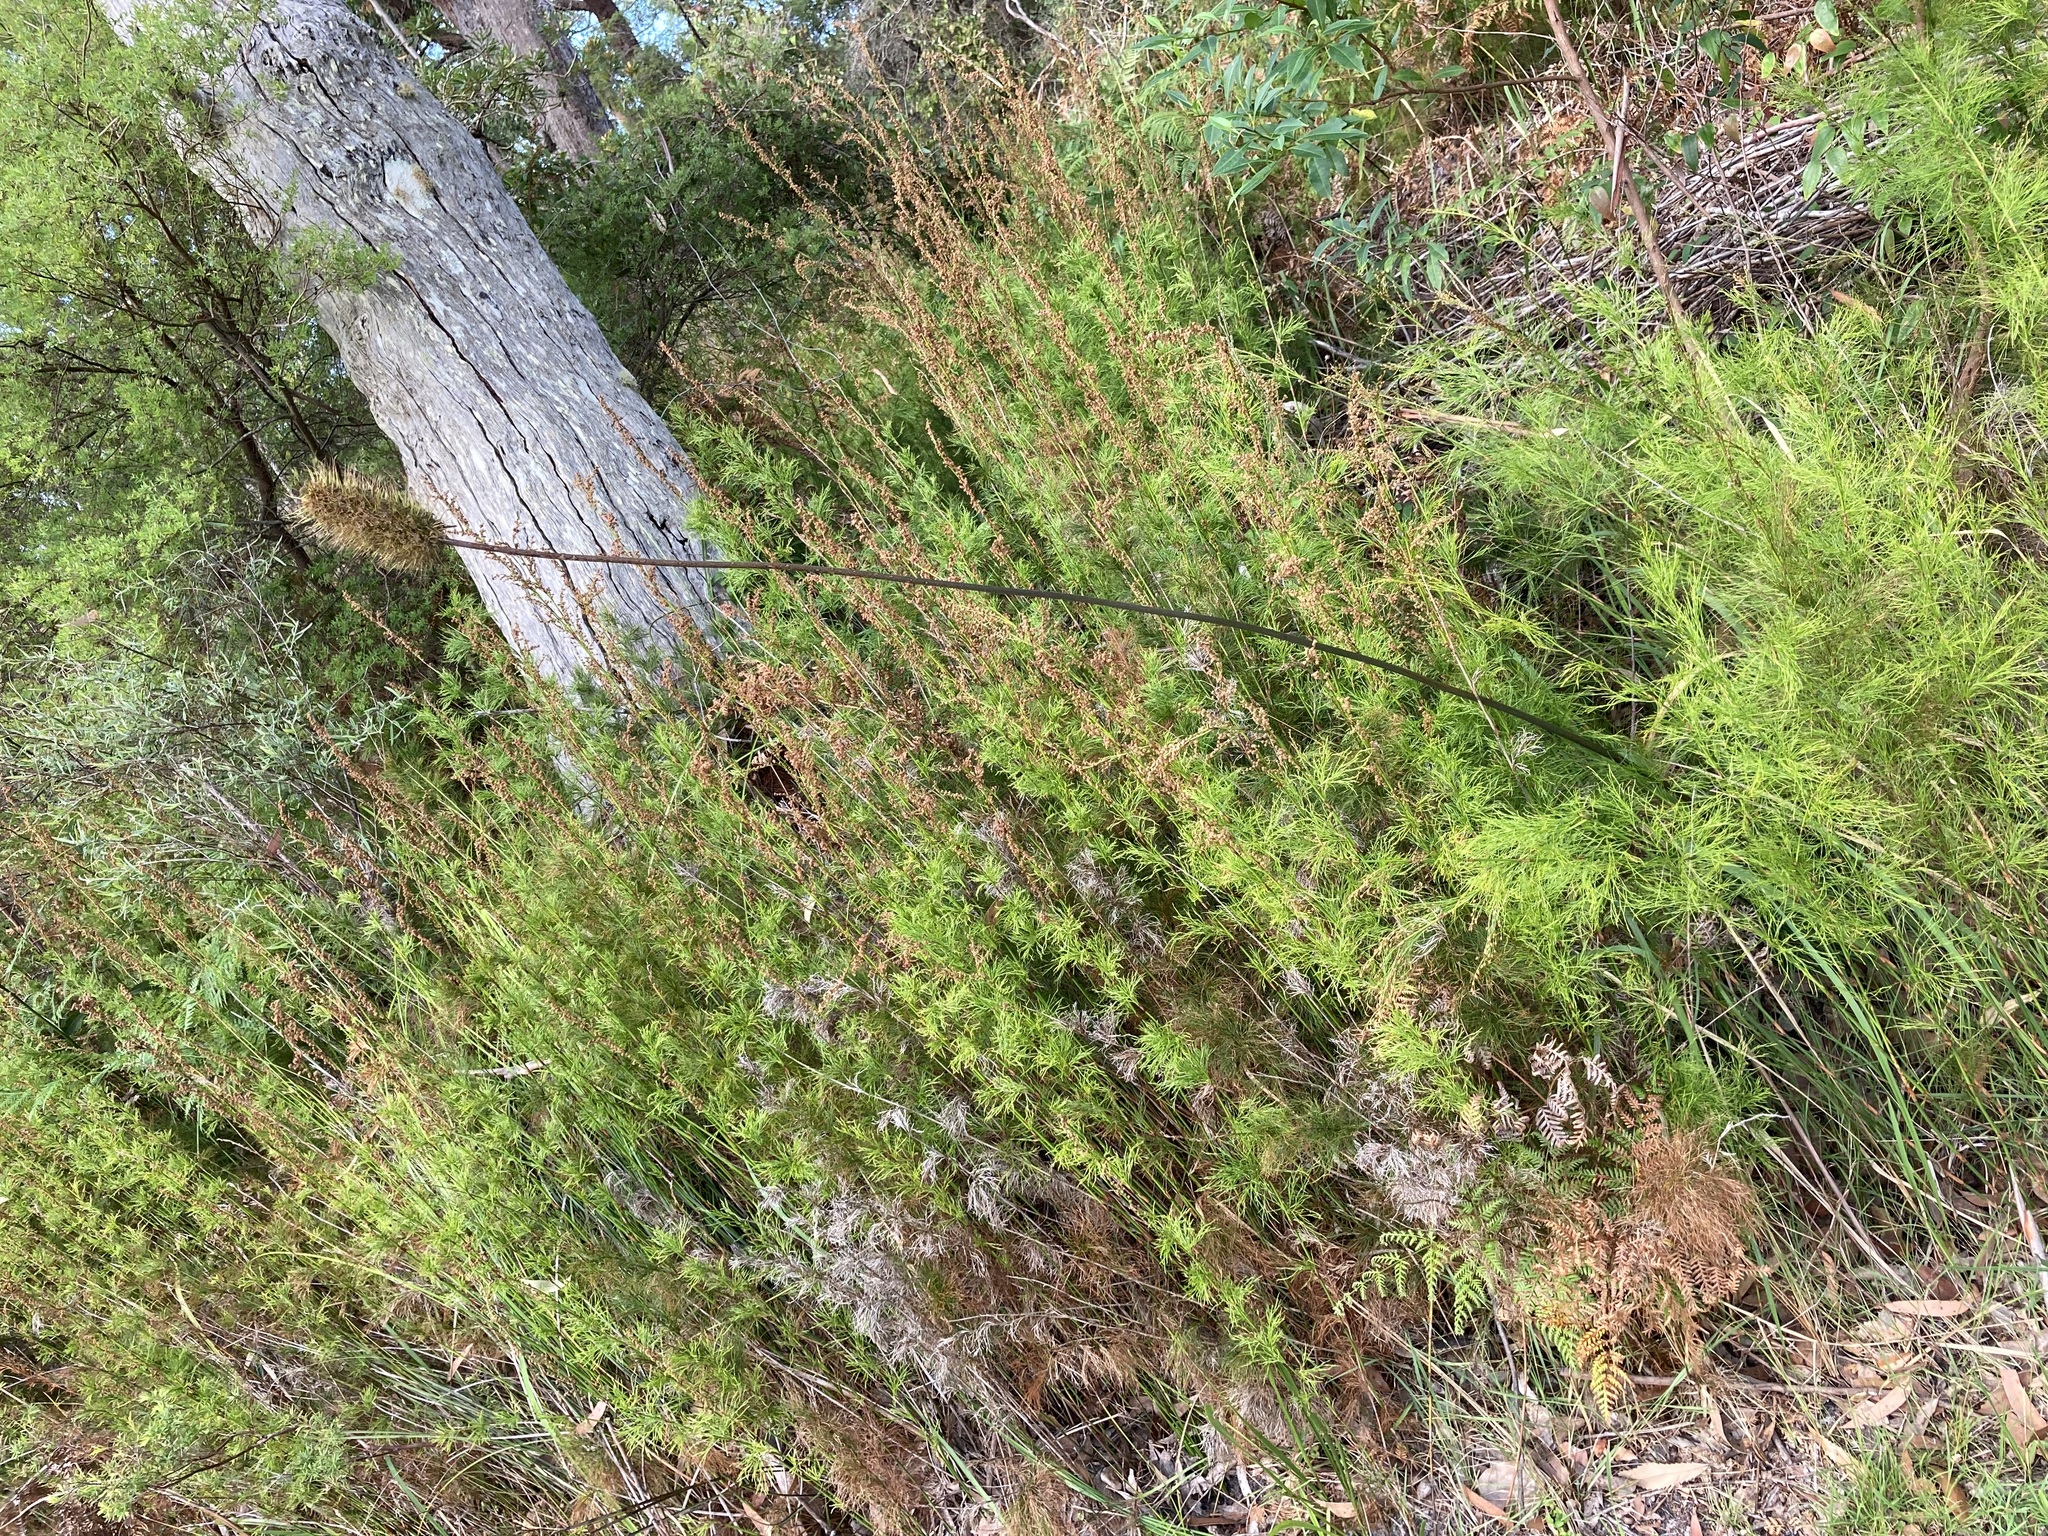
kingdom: Plantae
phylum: Tracheophyta
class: Liliopsida
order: Asparagales
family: Asphodelaceae
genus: Xanthorrhoea
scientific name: Xanthorrhoea macronema
